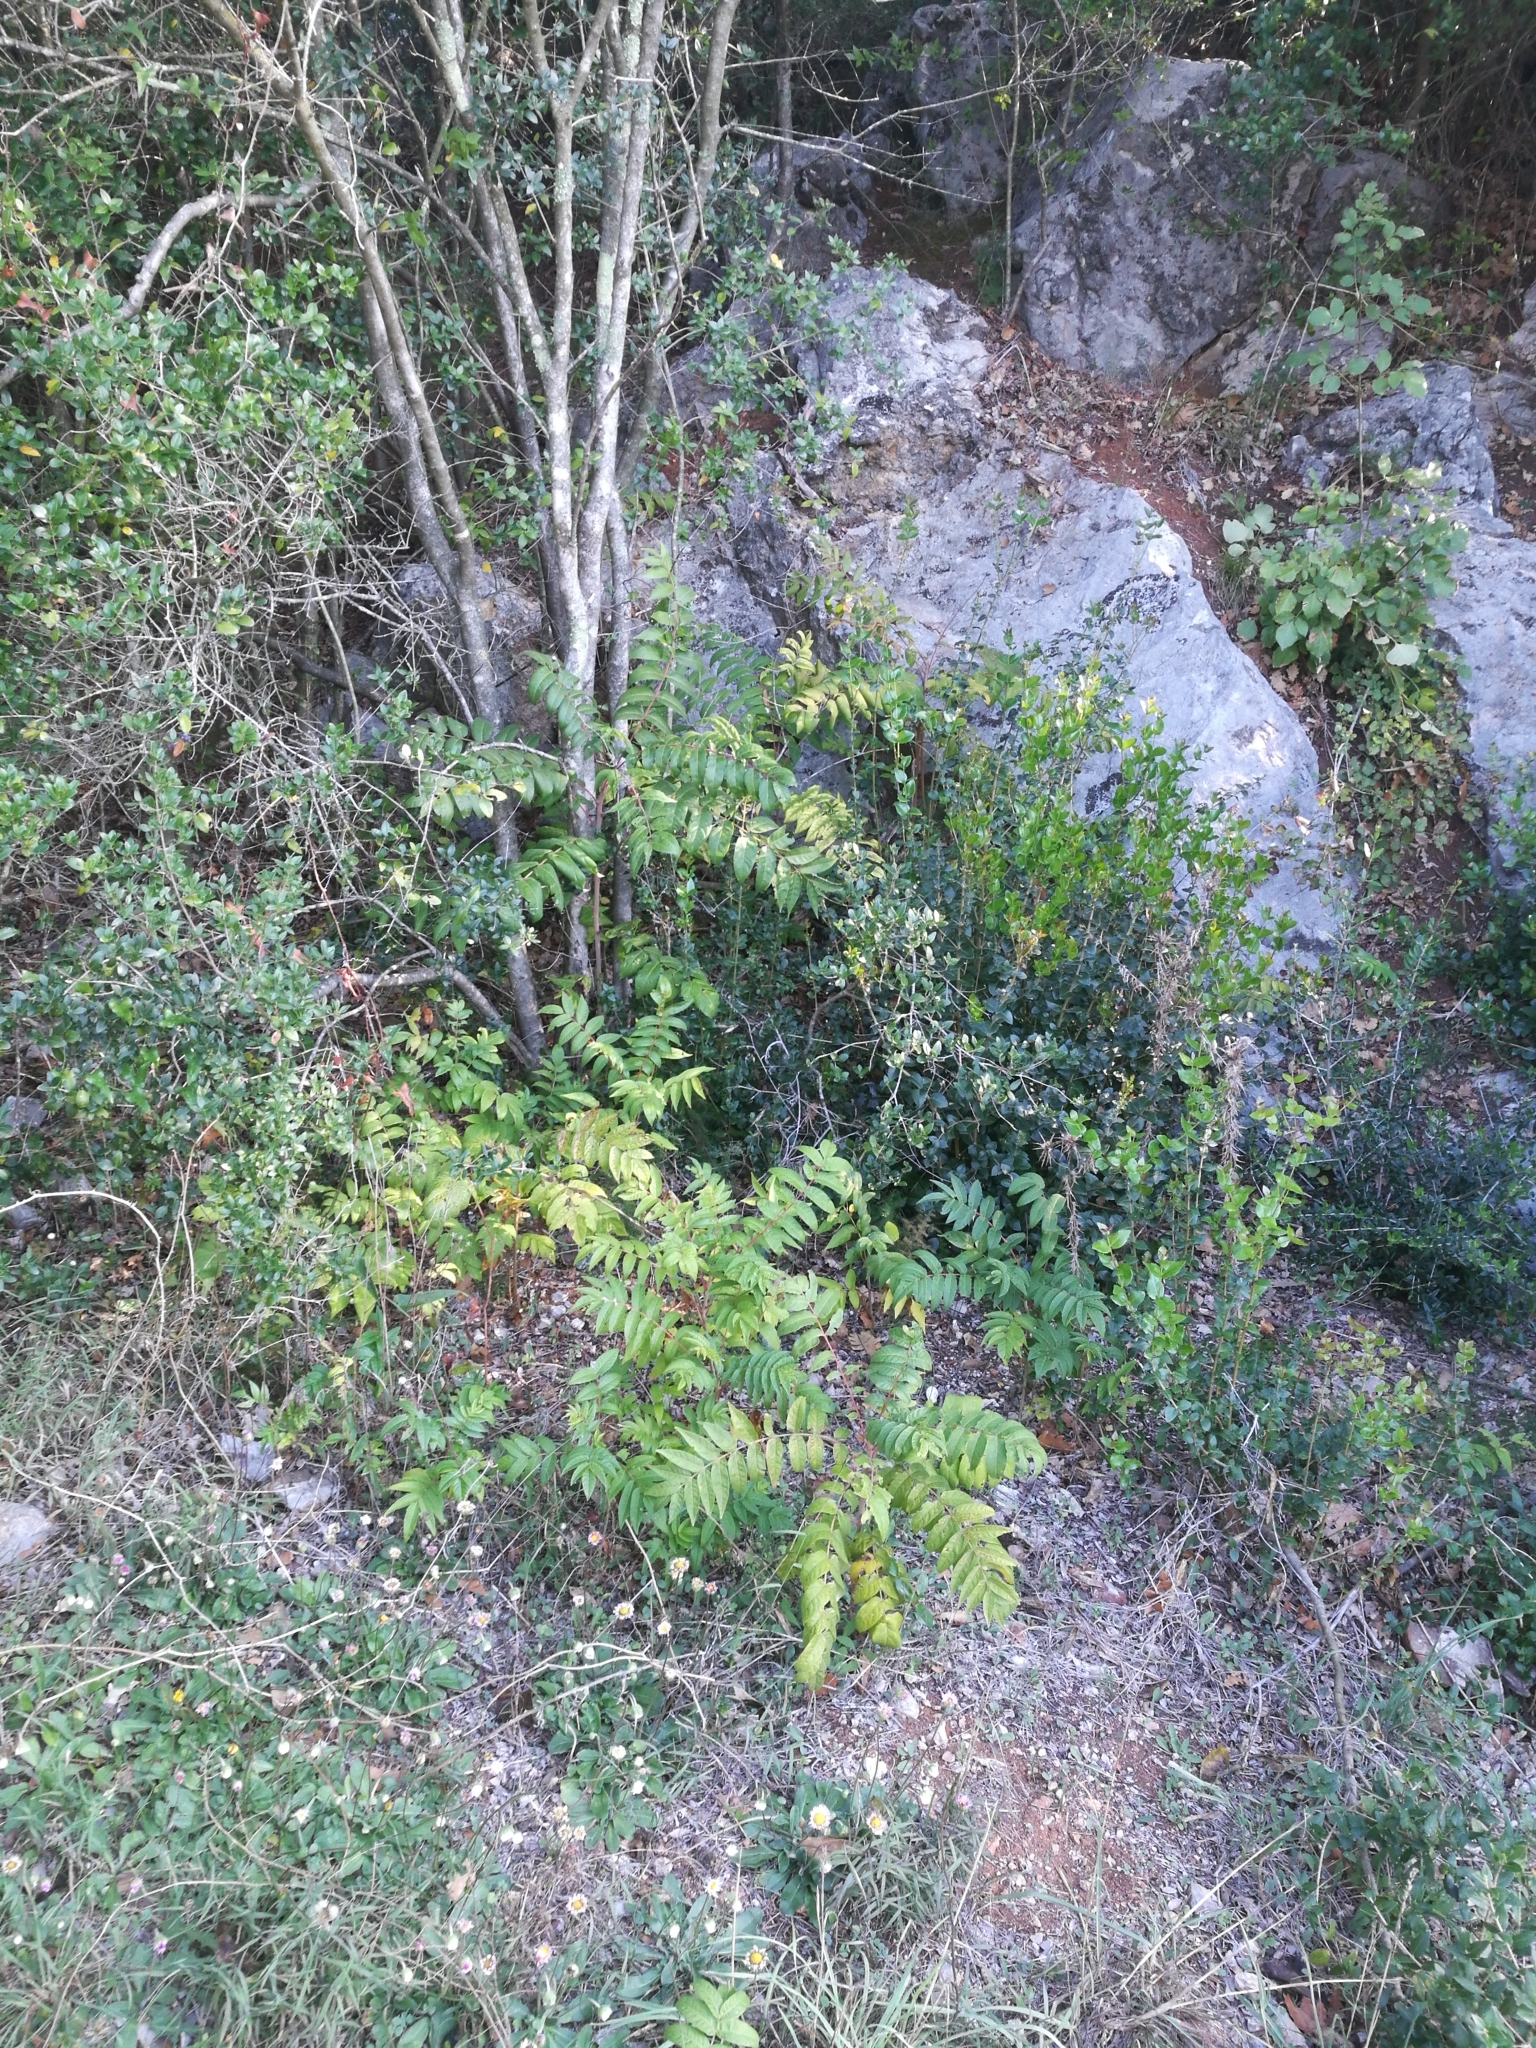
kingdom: Plantae
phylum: Tracheophyta
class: Magnoliopsida
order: Sapindales
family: Simaroubaceae
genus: Ailanthus
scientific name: Ailanthus altissima
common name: Tree-of-heaven
